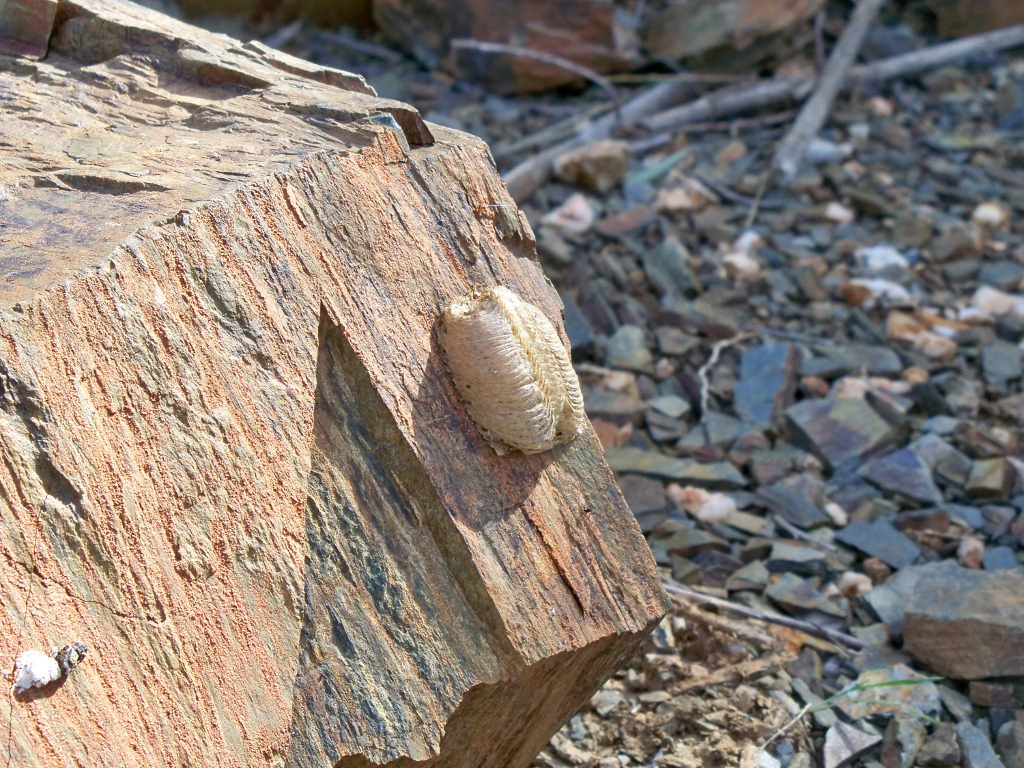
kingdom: Animalia
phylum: Arthropoda
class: Insecta
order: Mantodea
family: Mantidae
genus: Mantis
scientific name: Mantis religiosa
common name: Praying mantis
